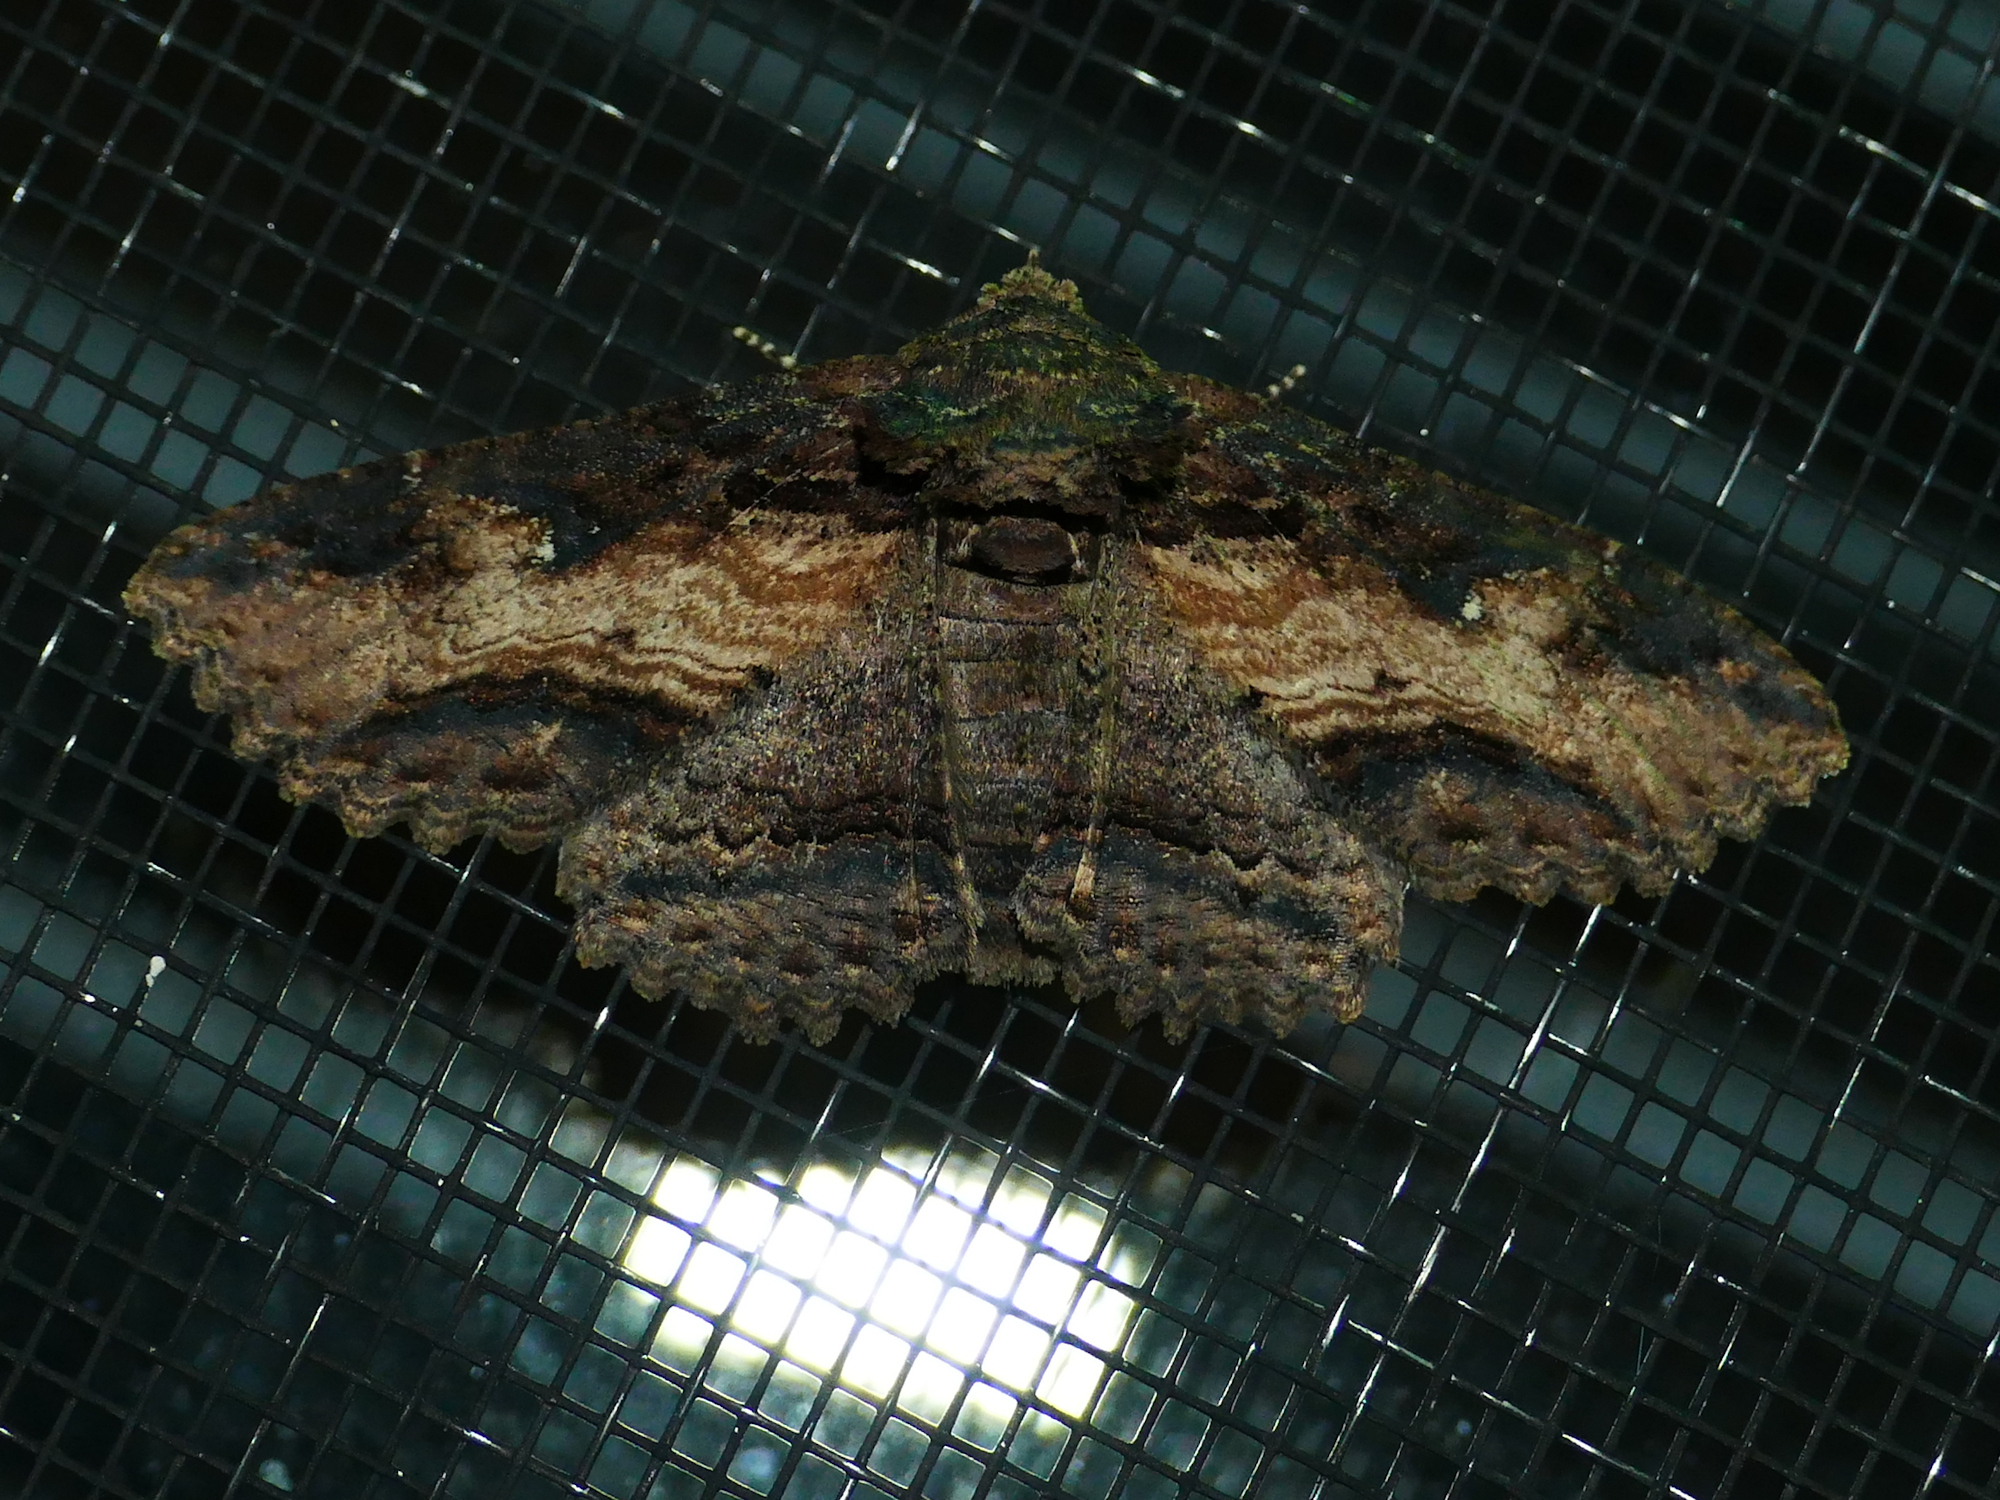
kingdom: Animalia
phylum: Arthropoda
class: Insecta
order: Lepidoptera
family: Erebidae
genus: Zale
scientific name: Zale lunata
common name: Lunate zale moth
